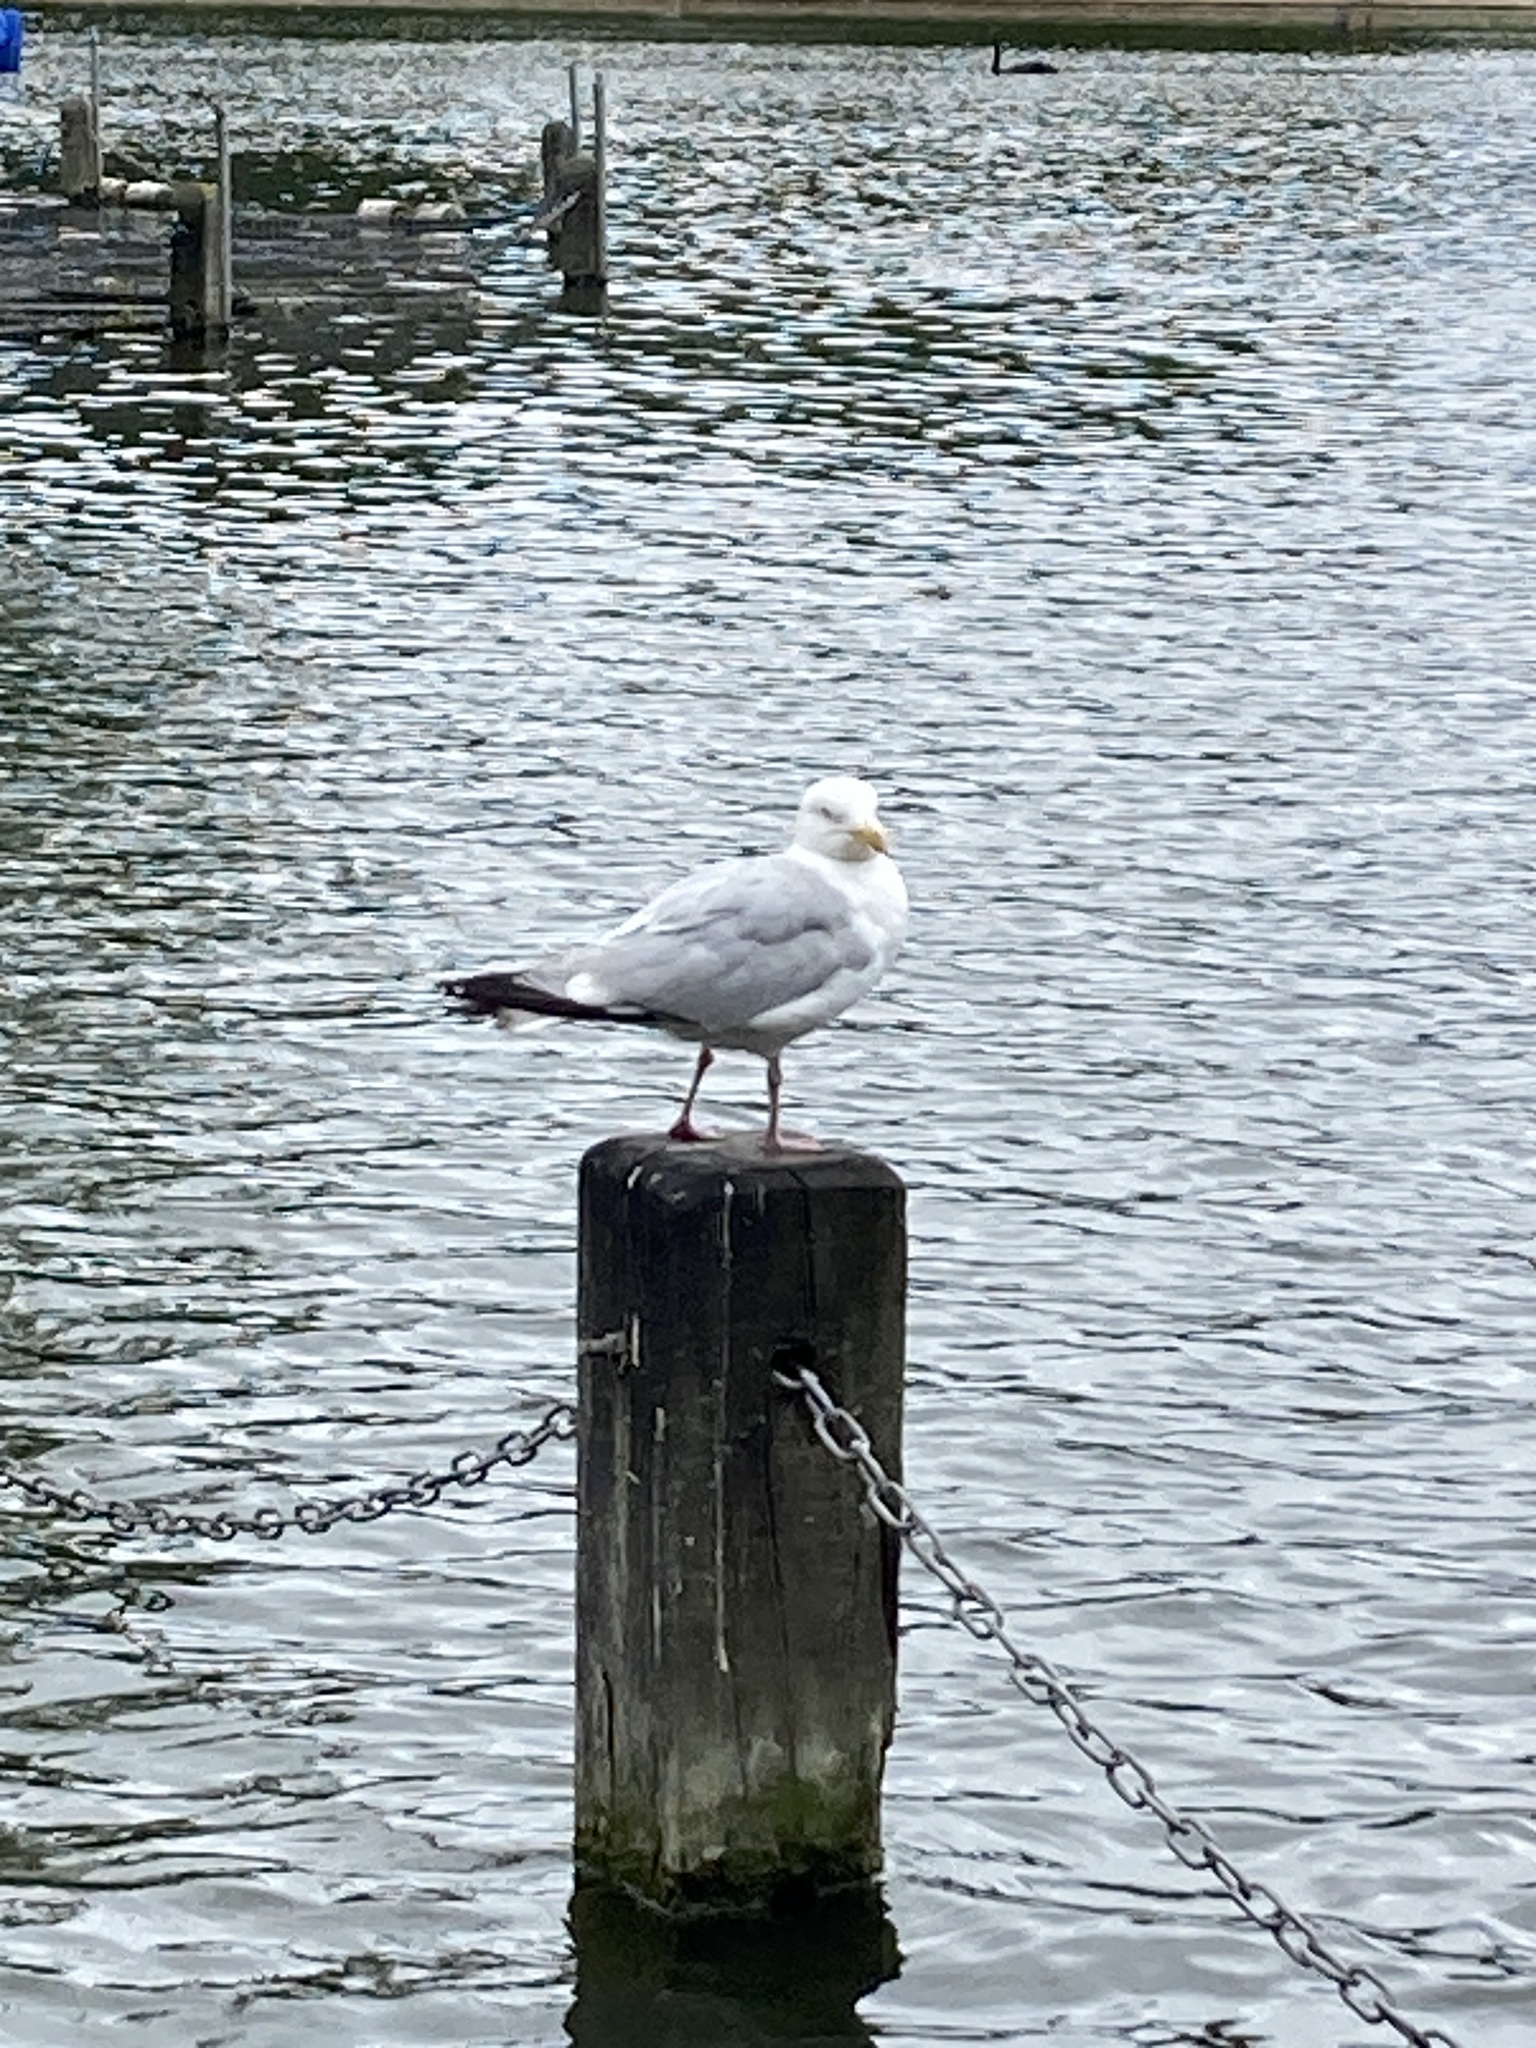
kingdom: Animalia
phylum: Chordata
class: Aves
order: Charadriiformes
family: Laridae
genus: Larus
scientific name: Larus argentatus
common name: Herring gull
